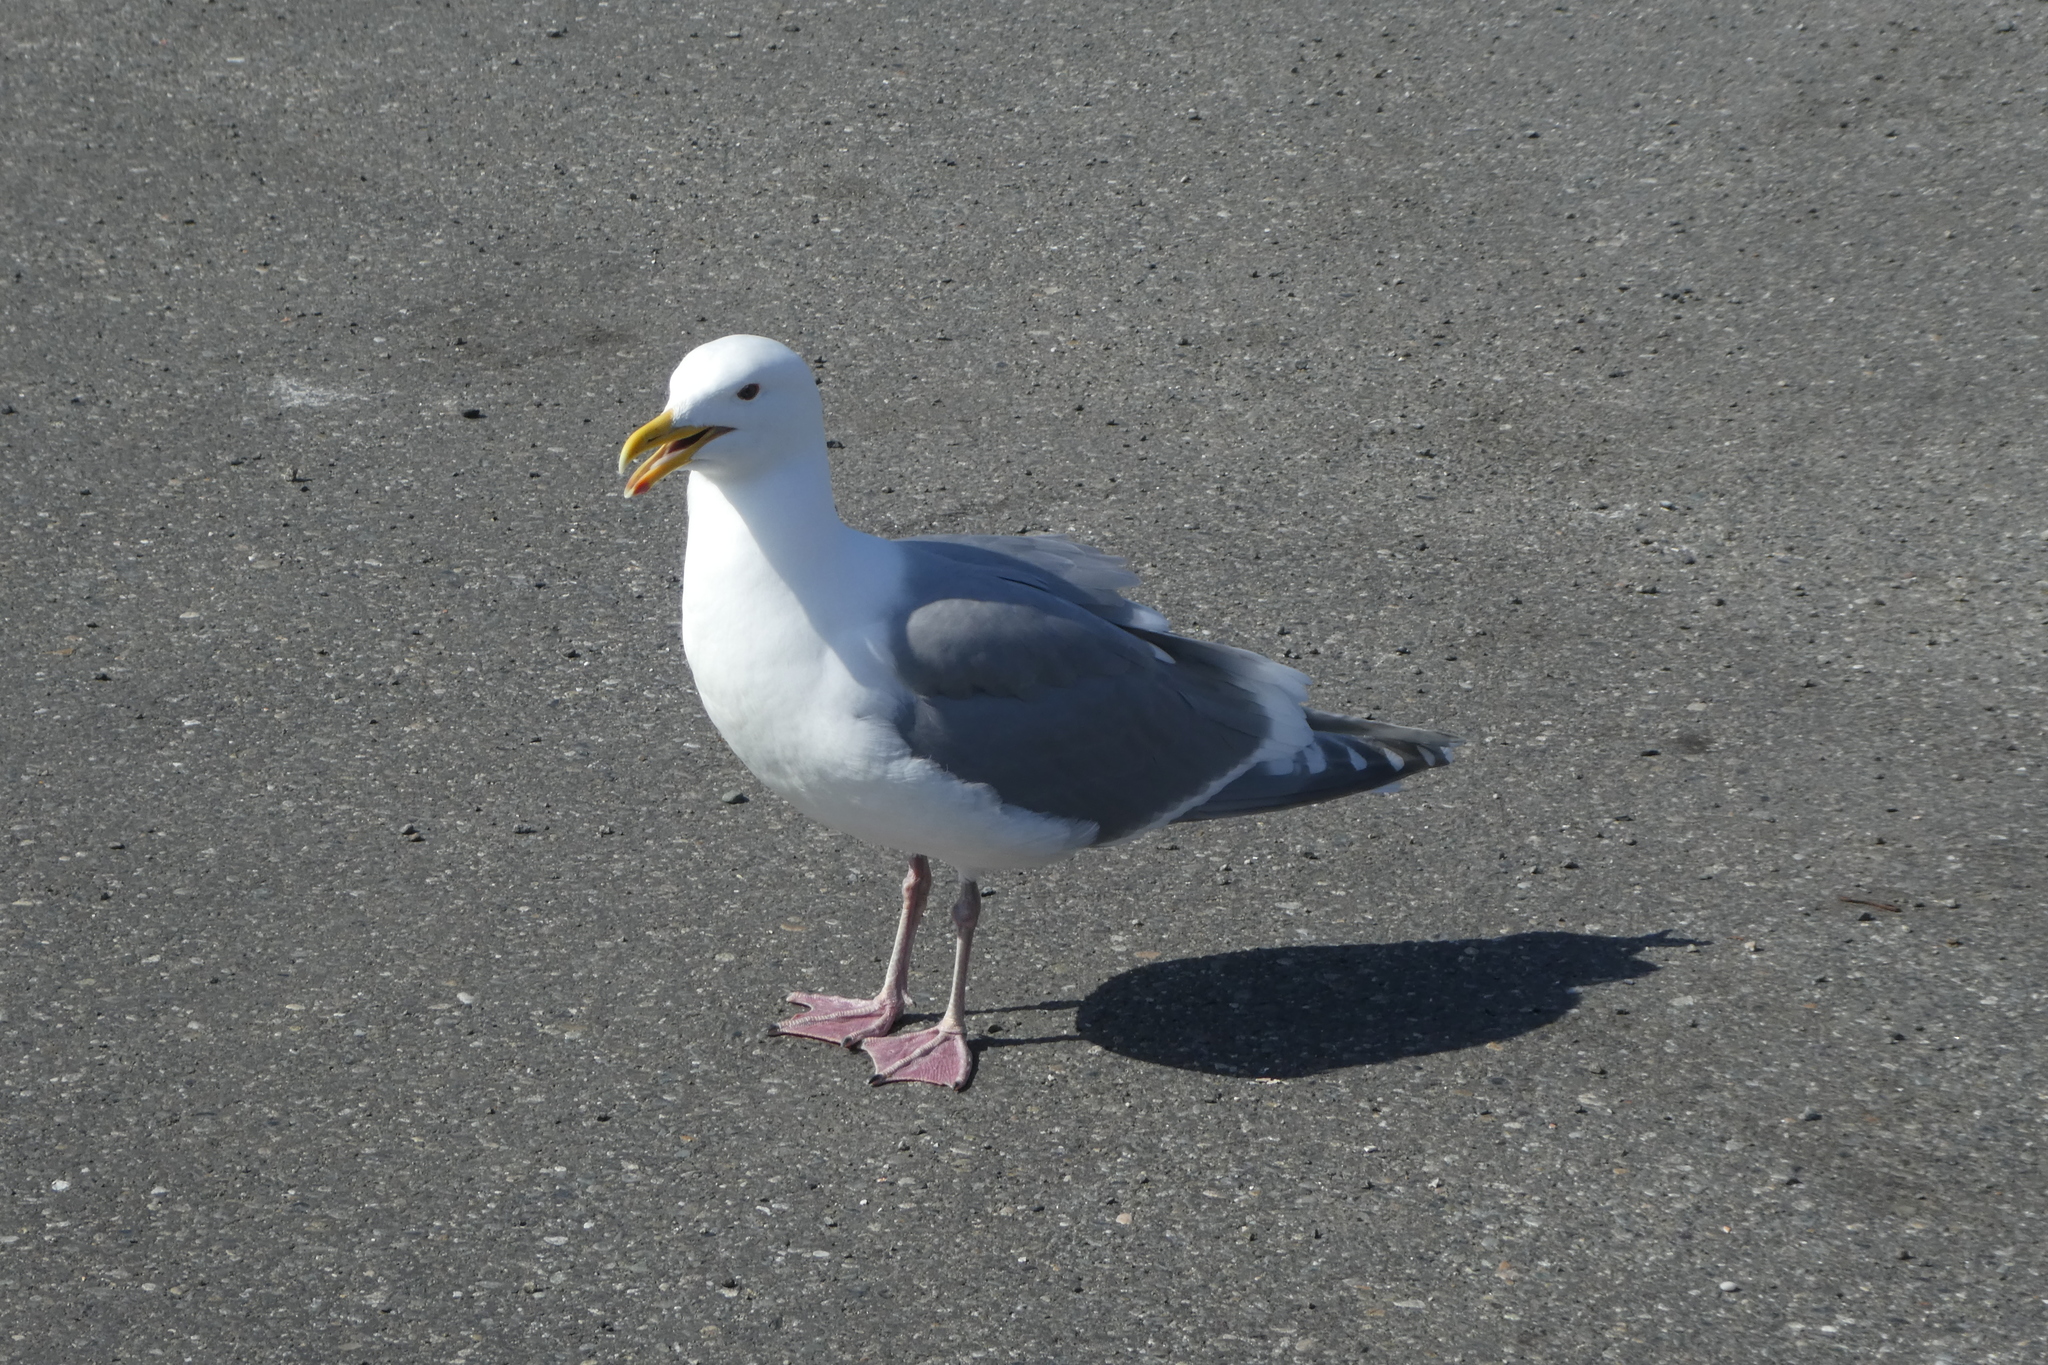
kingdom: Animalia
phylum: Chordata
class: Aves
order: Charadriiformes
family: Laridae
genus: Larus
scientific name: Larus
